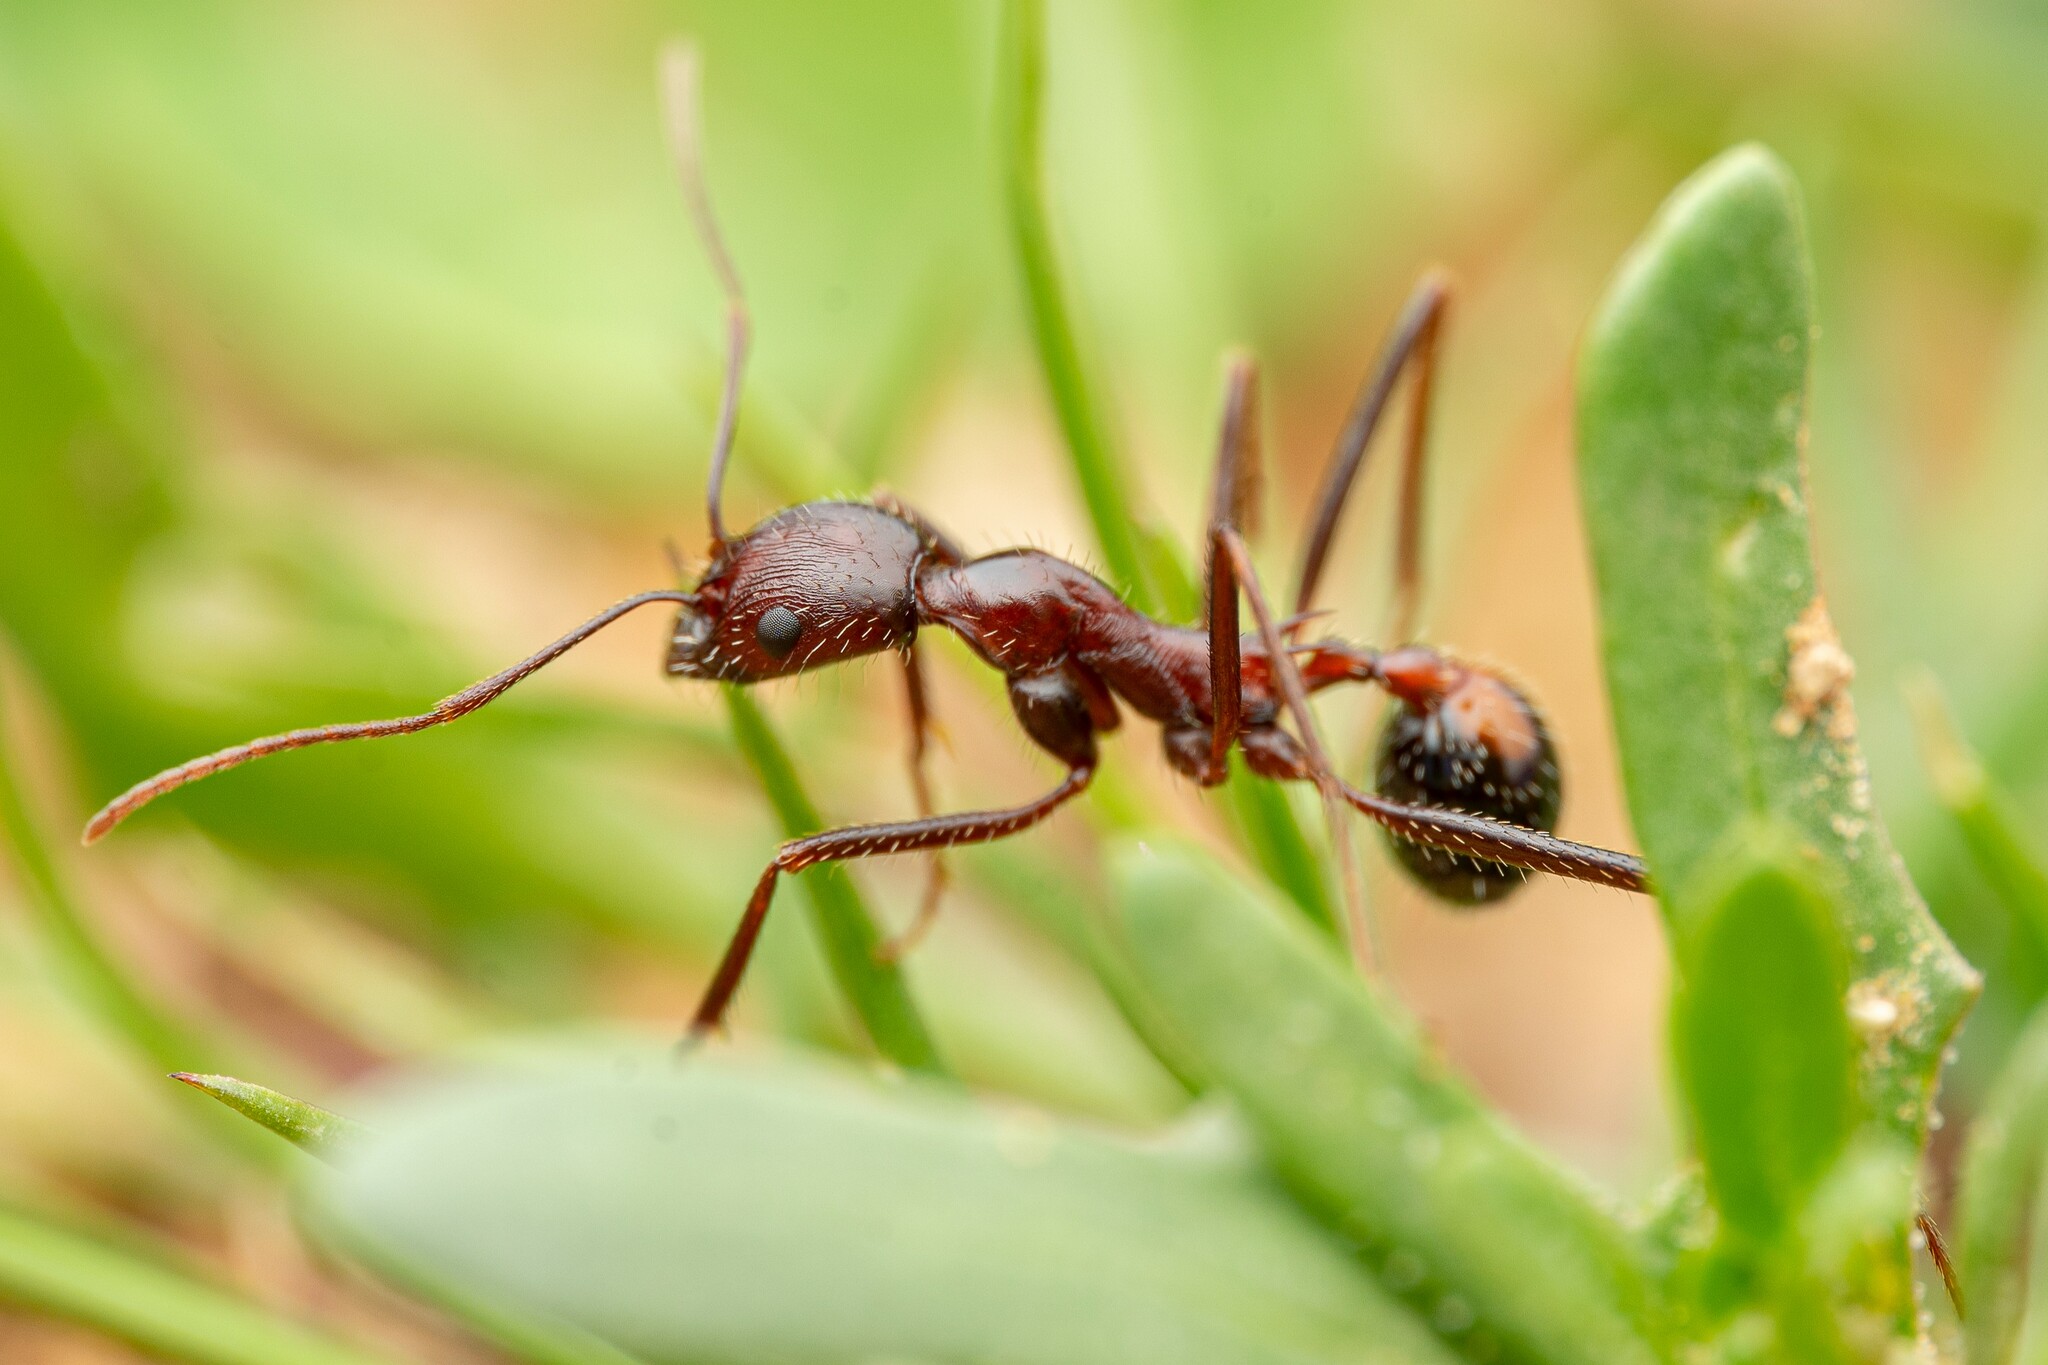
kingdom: Animalia
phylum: Arthropoda
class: Insecta
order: Hymenoptera
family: Formicidae
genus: Novomessor
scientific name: Novomessor cockerelli
